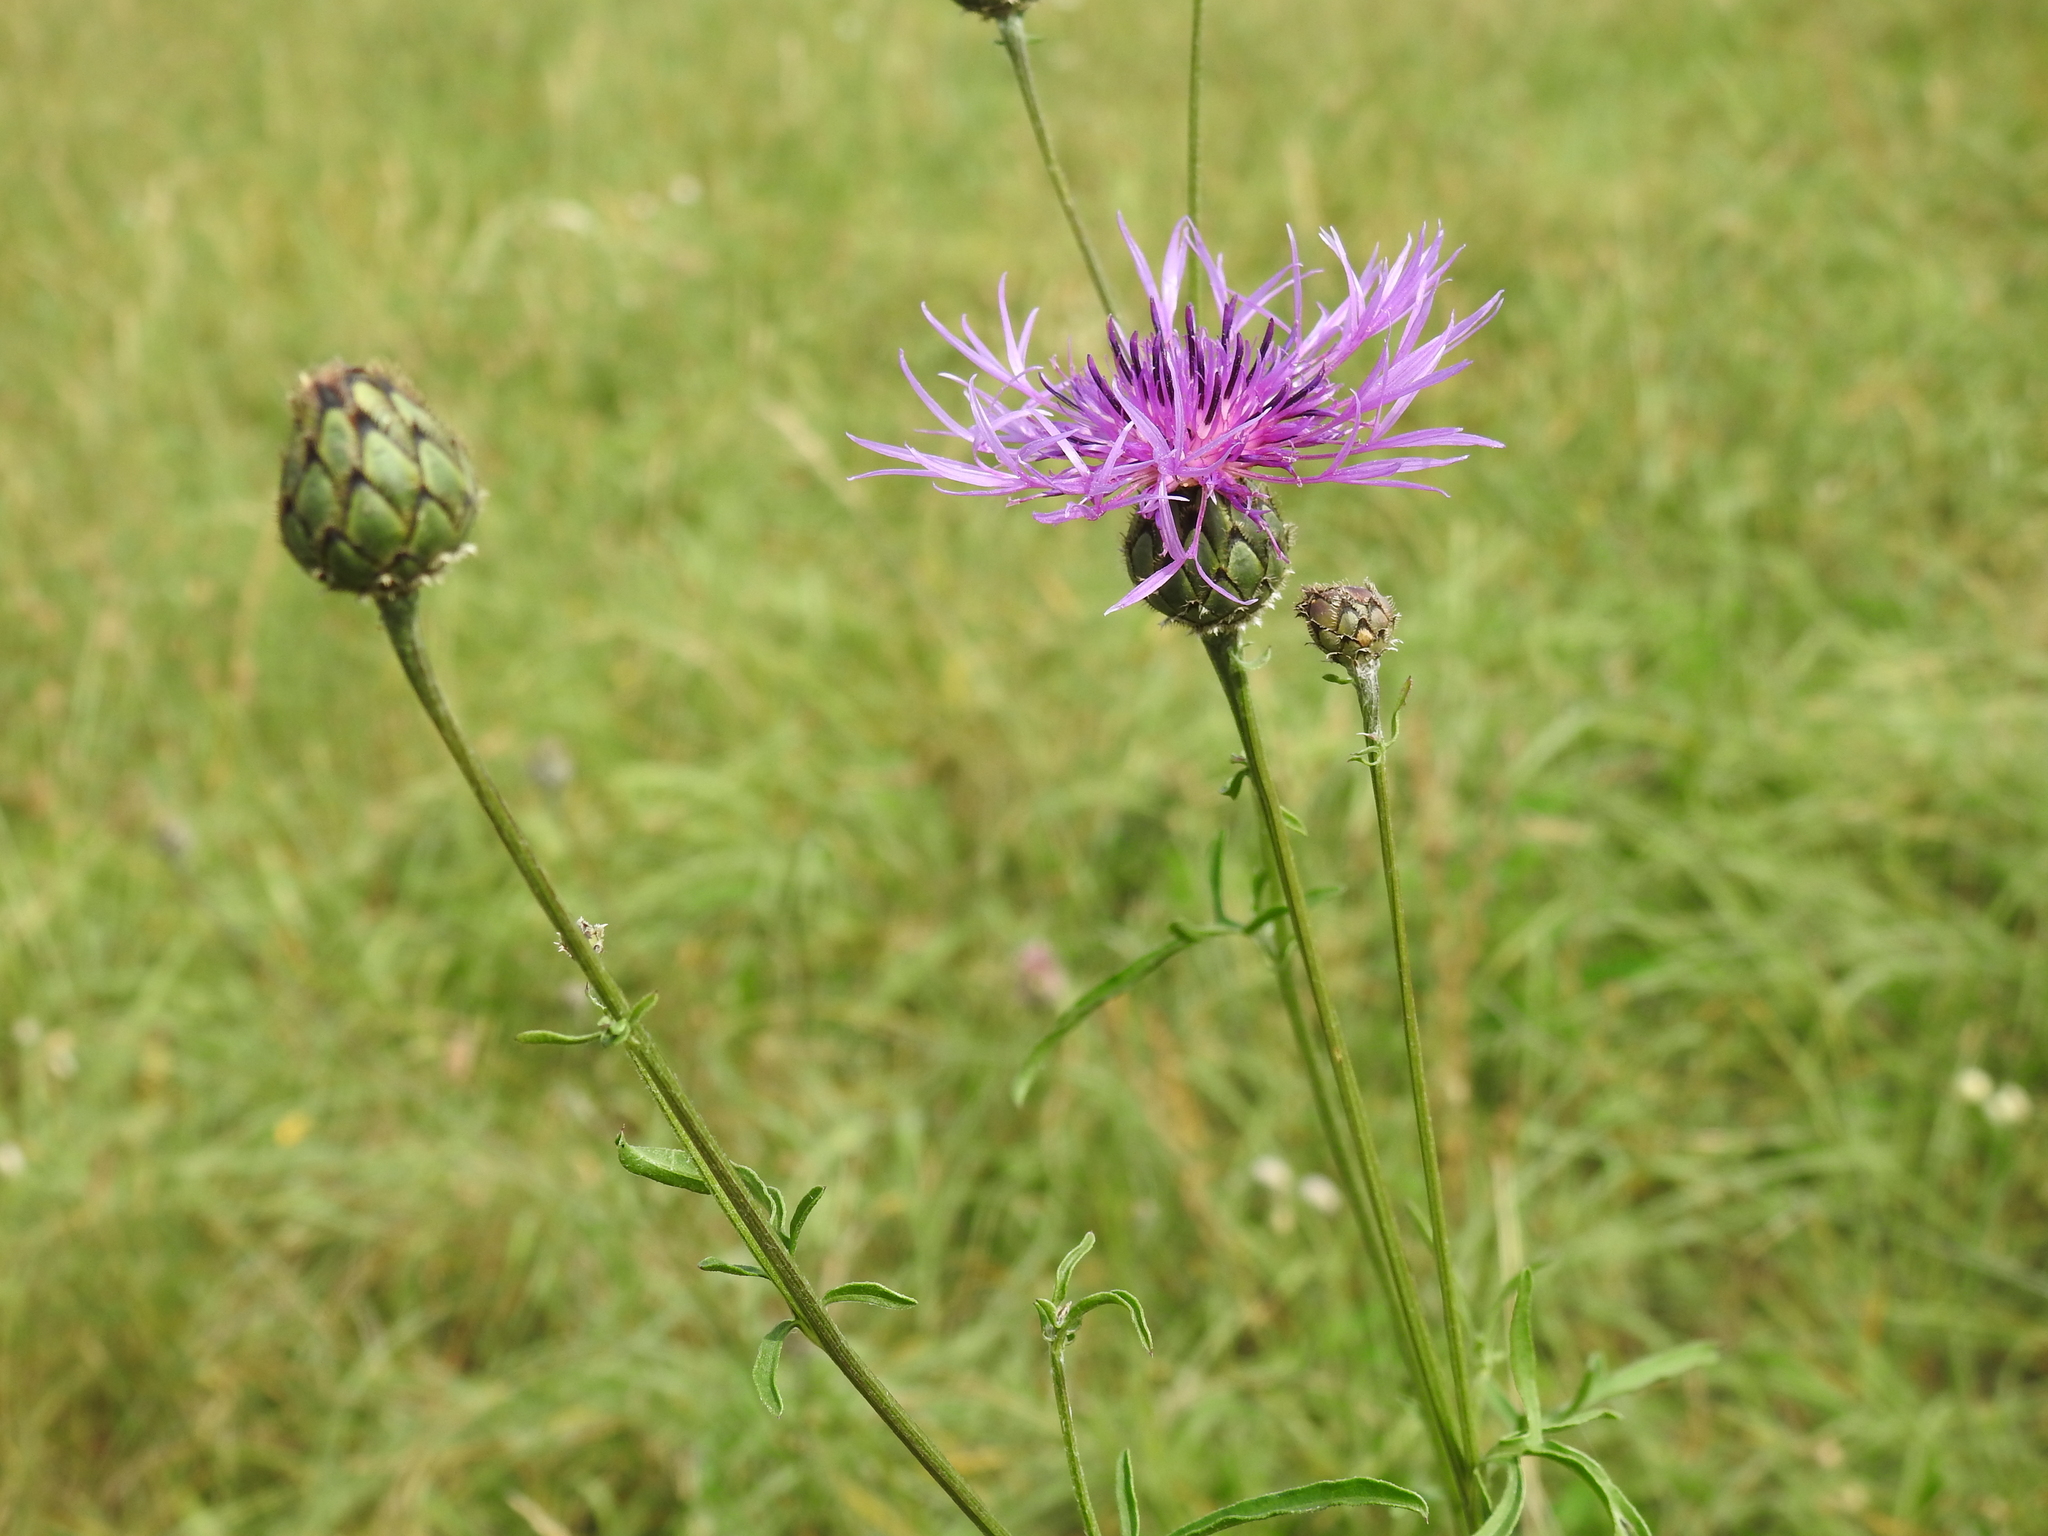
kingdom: Plantae
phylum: Tracheophyta
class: Magnoliopsida
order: Asterales
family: Asteraceae
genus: Centaurea
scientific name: Centaurea scabiosa
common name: Greater knapweed
